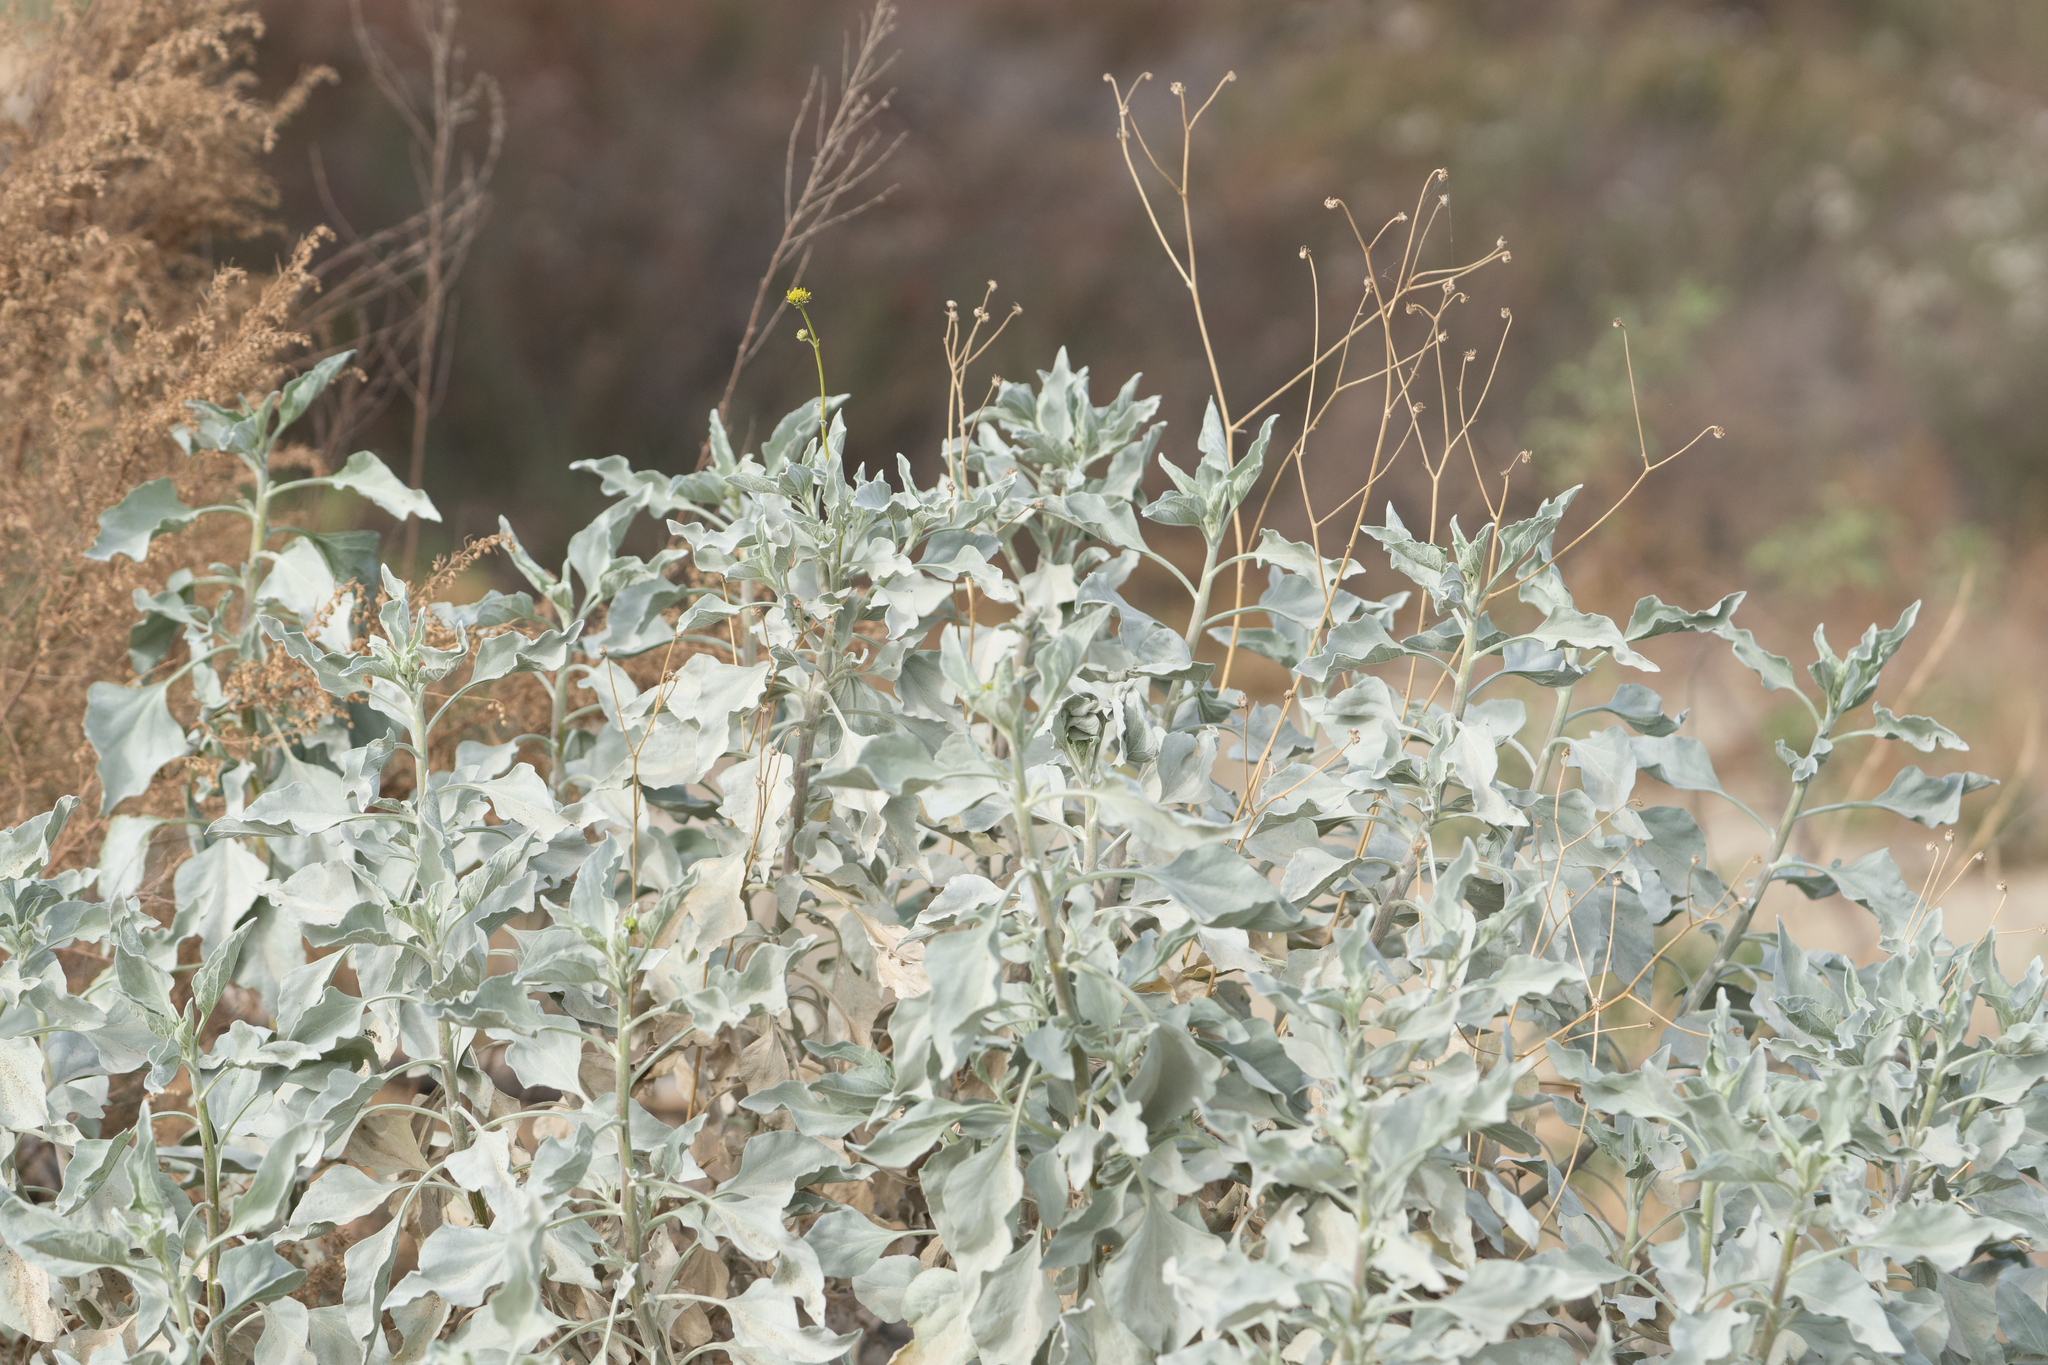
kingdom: Plantae
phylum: Tracheophyta
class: Magnoliopsida
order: Asterales
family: Asteraceae
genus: Encelia
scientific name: Encelia farinosa
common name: Brittlebush
